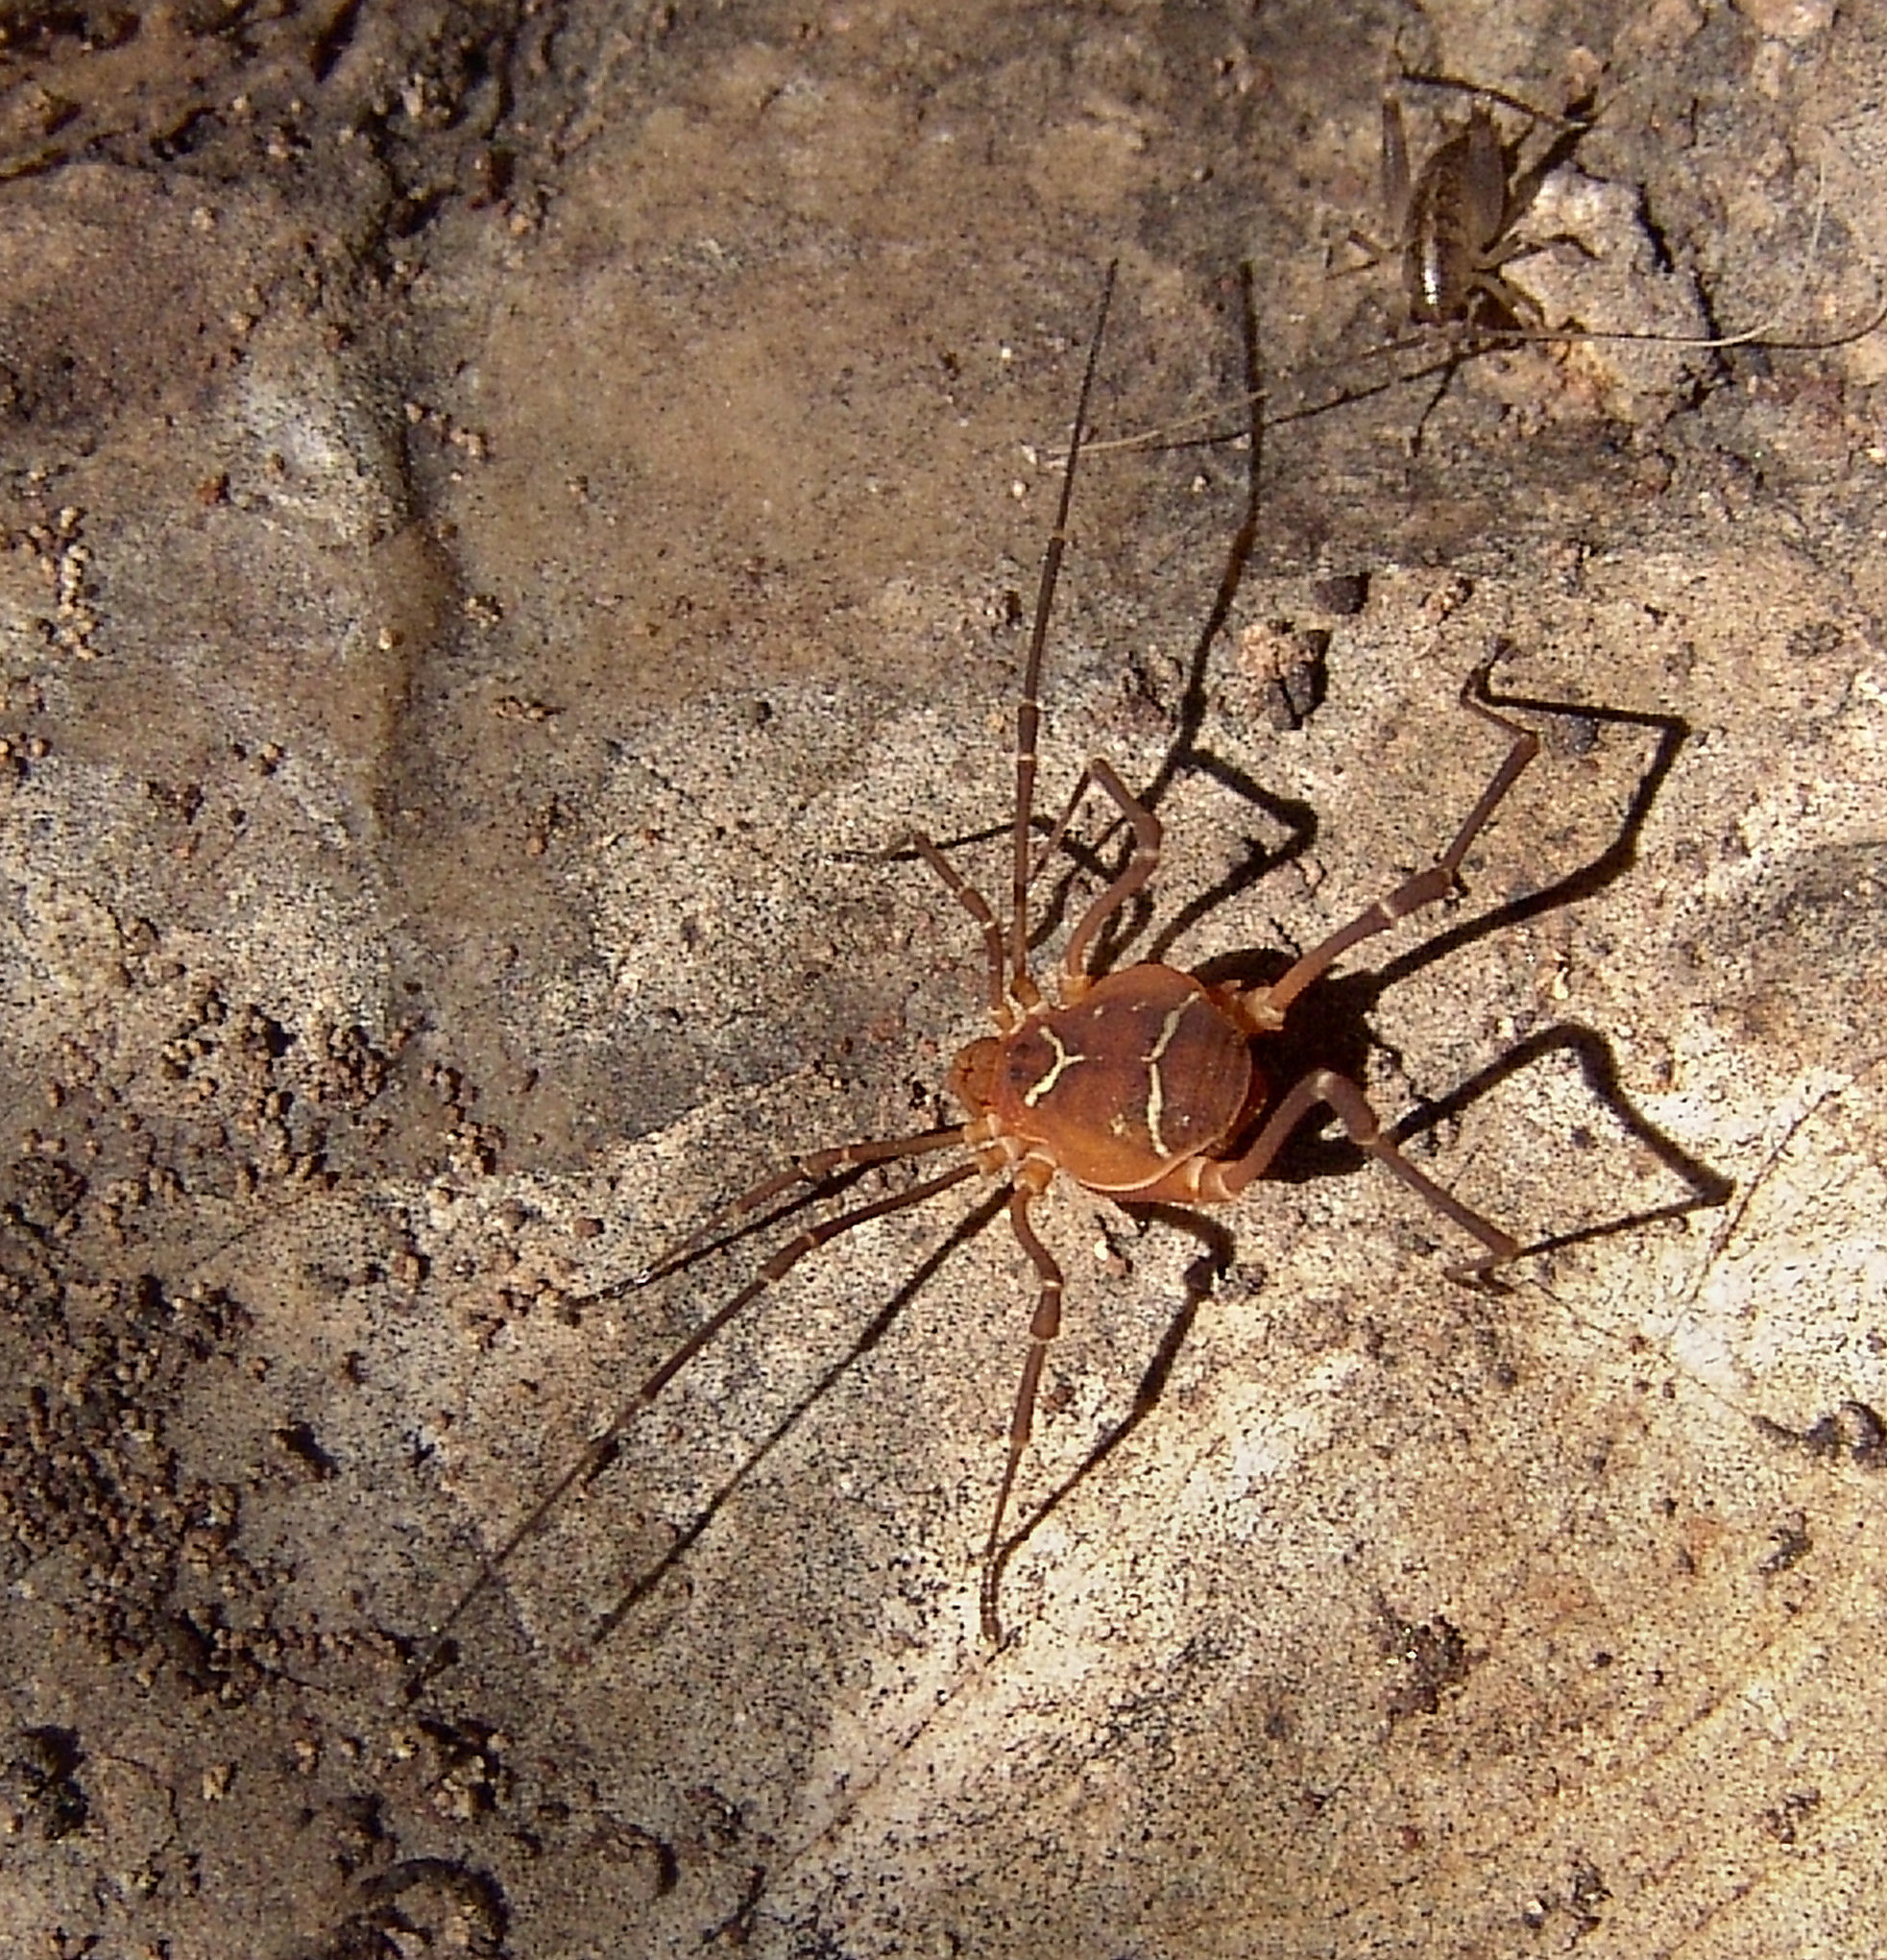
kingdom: Animalia
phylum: Arthropoda
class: Arachnida
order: Opiliones
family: Cosmetidae
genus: Libitioides
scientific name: Libitioides sayi
